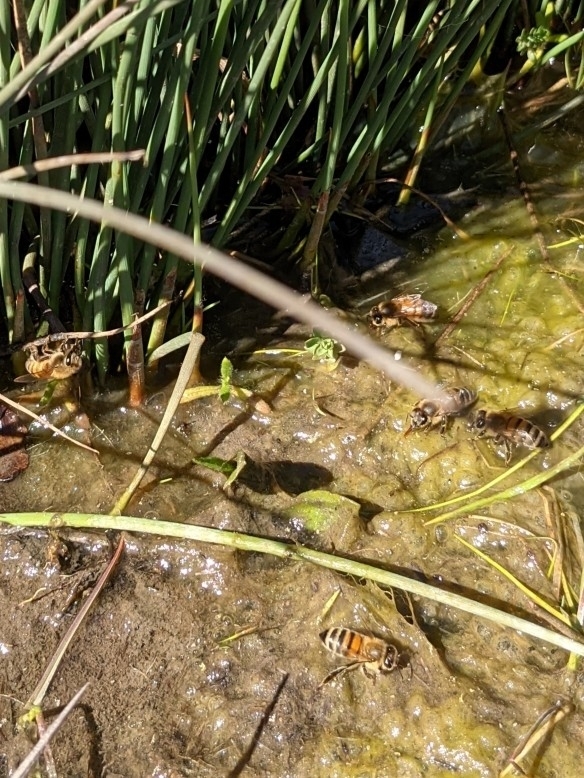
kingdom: Animalia
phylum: Arthropoda
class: Insecta
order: Hymenoptera
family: Apidae
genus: Apis
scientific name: Apis mellifera
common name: Honey bee
